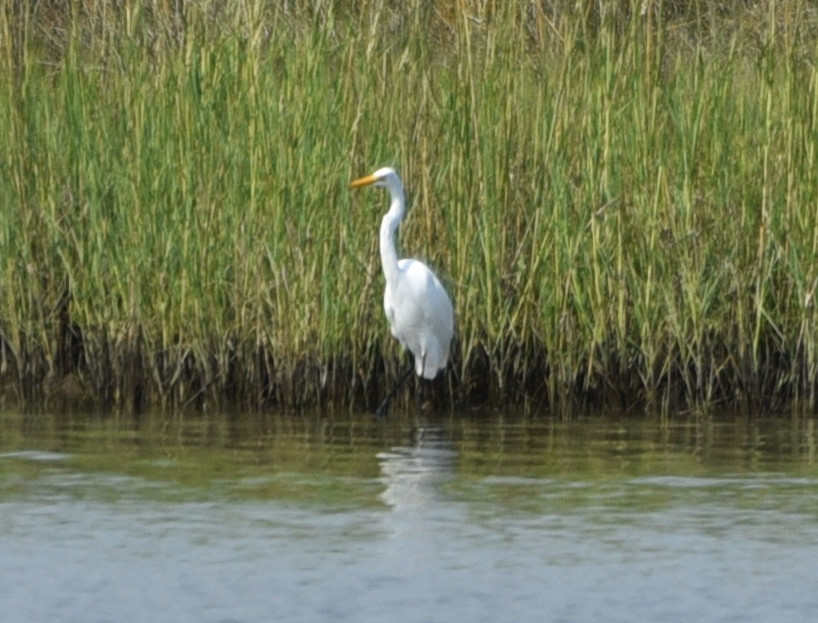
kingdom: Animalia
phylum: Chordata
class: Aves
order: Pelecaniformes
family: Ardeidae
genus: Ardea
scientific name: Ardea alba
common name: Great egret
